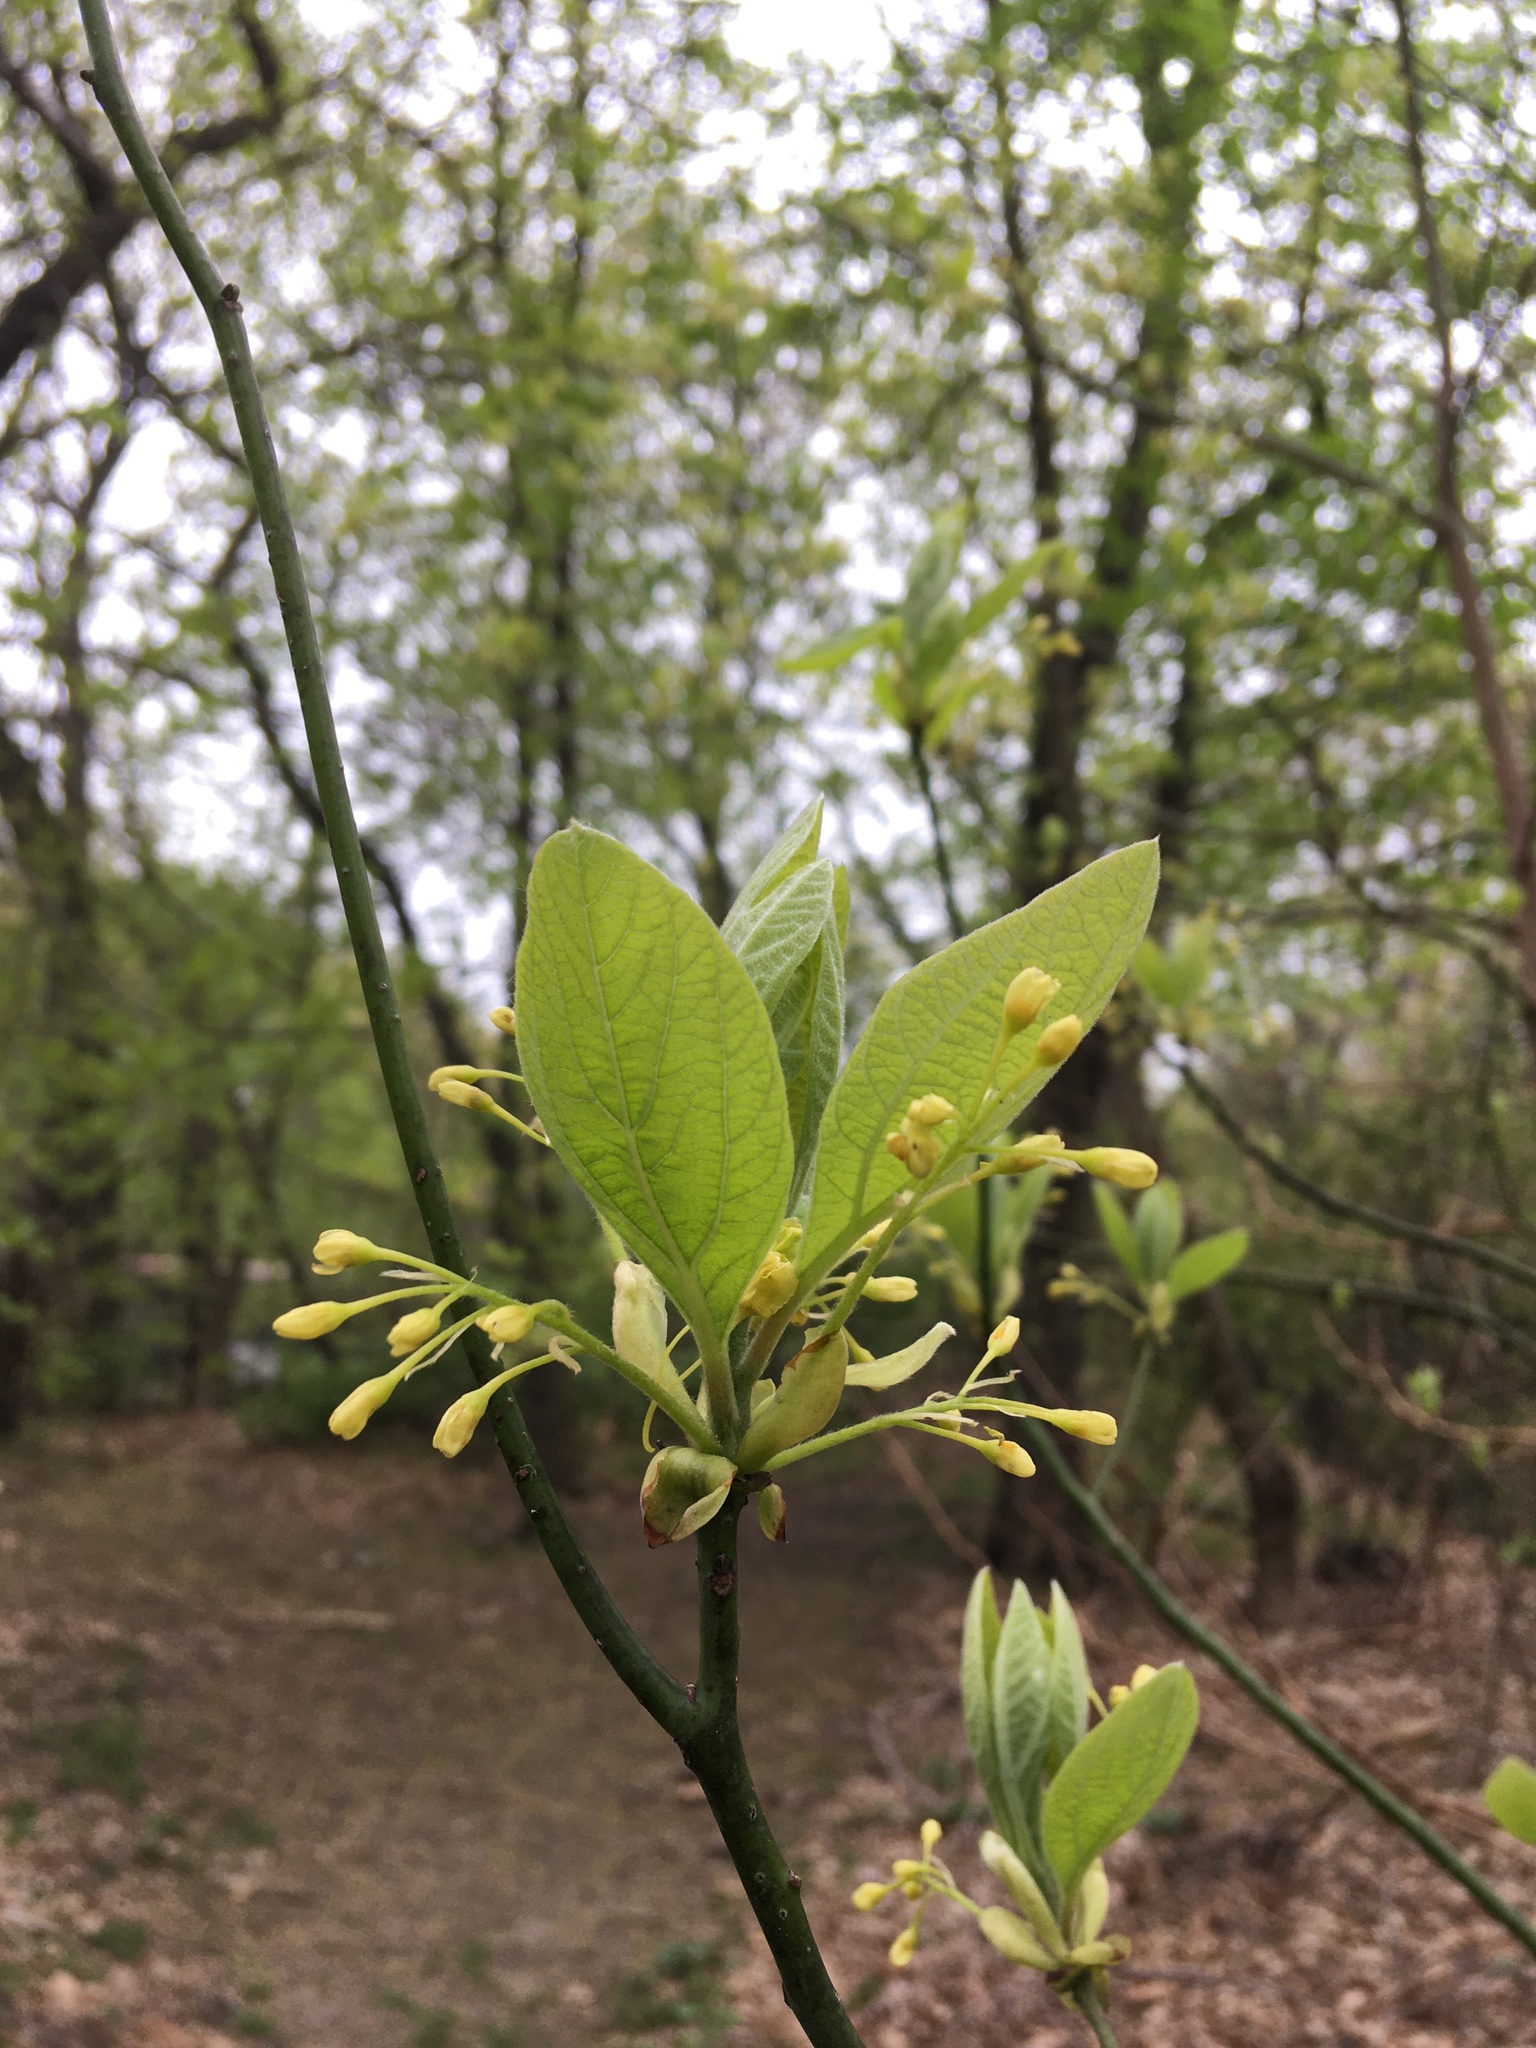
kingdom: Plantae
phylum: Tracheophyta
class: Magnoliopsida
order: Laurales
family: Lauraceae
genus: Sassafras
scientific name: Sassafras albidum
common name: Sassafras
